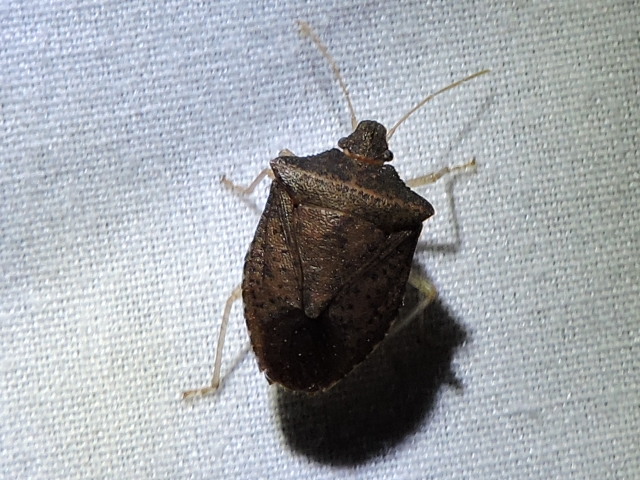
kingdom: Animalia
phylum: Arthropoda
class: Insecta
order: Hemiptera
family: Pentatomidae
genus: Euschistus
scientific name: Euschistus obscurus
